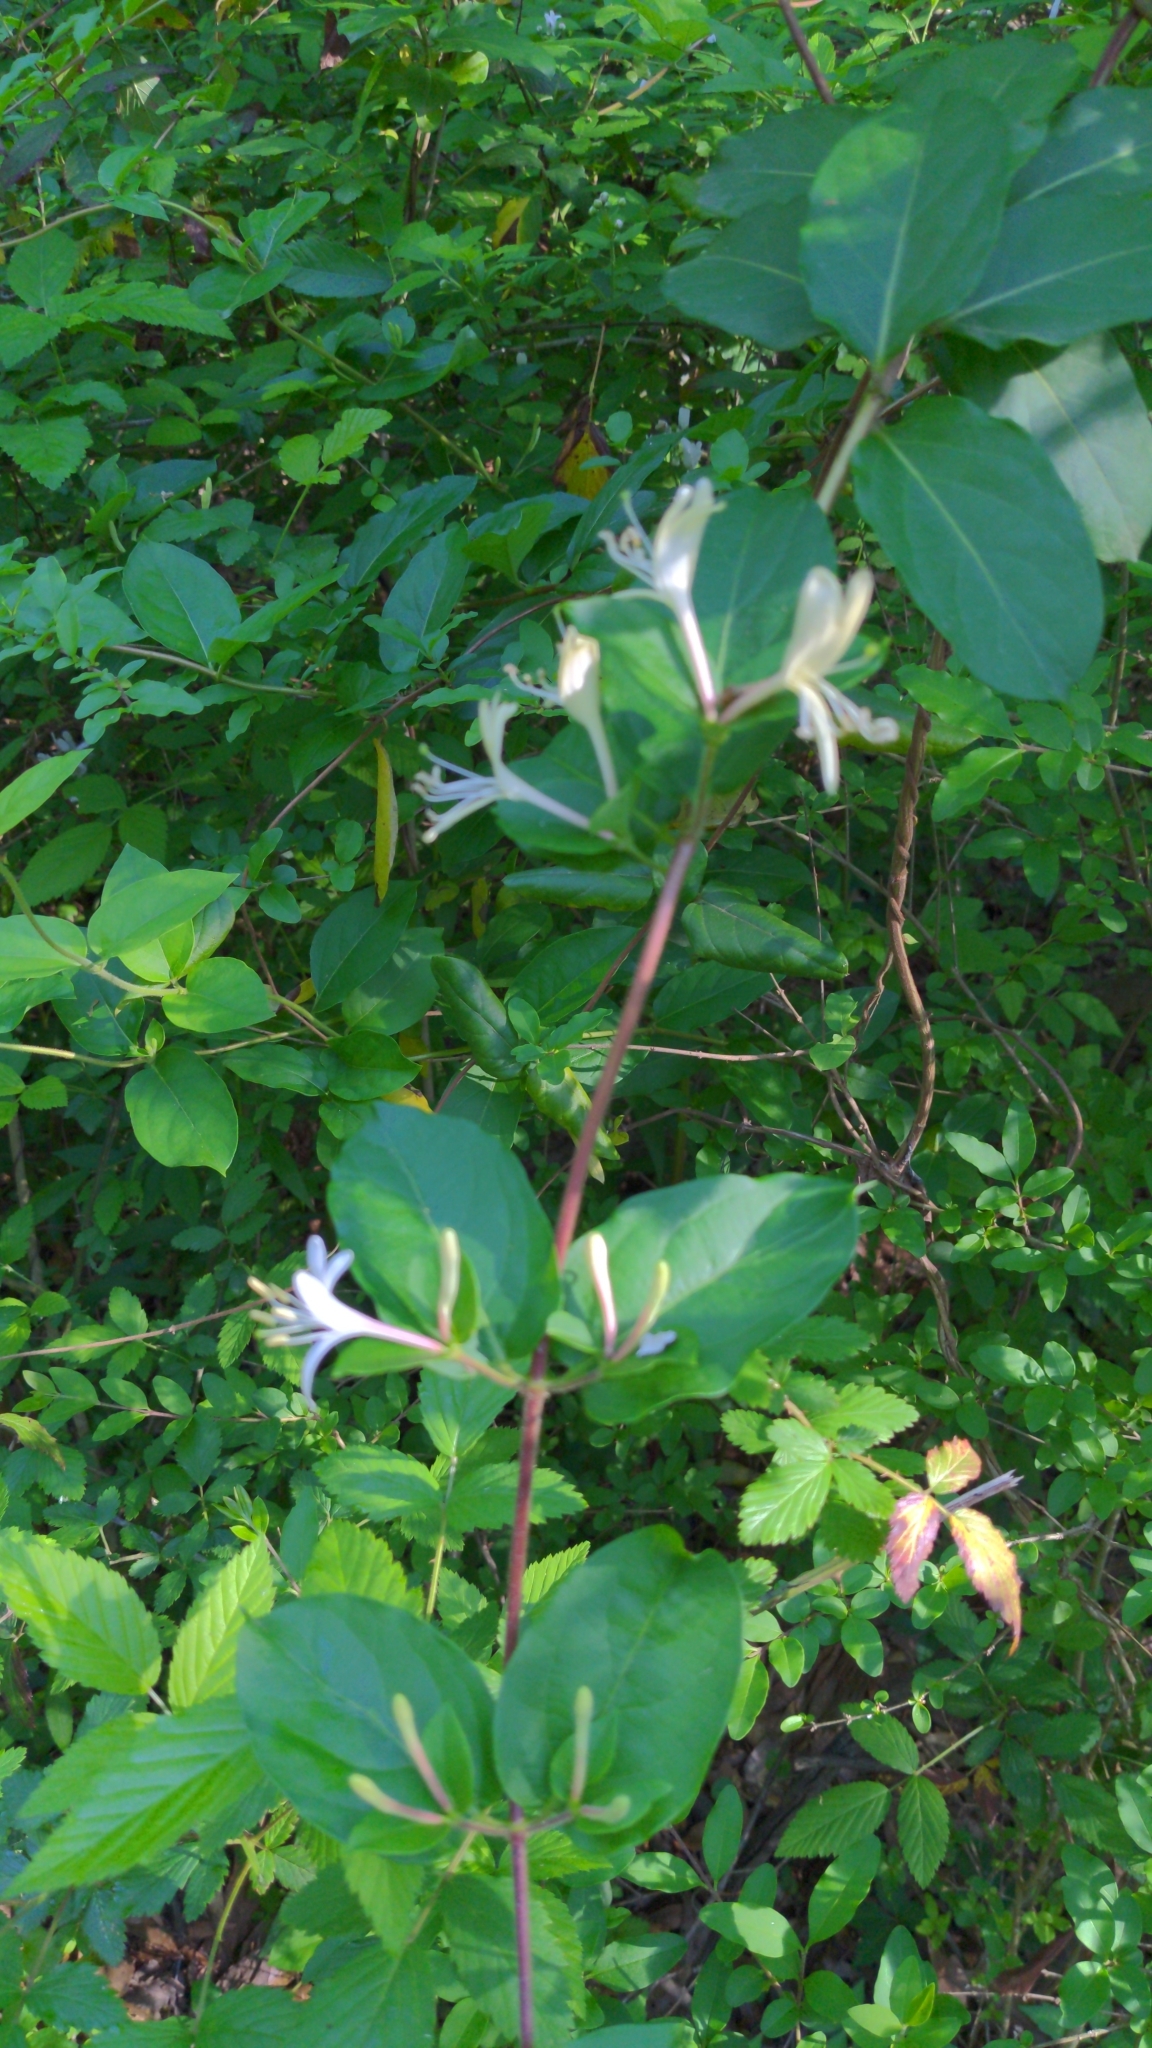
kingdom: Plantae
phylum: Tracheophyta
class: Magnoliopsida
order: Dipsacales
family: Caprifoliaceae
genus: Lonicera
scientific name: Lonicera japonica
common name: Japanese honeysuckle
